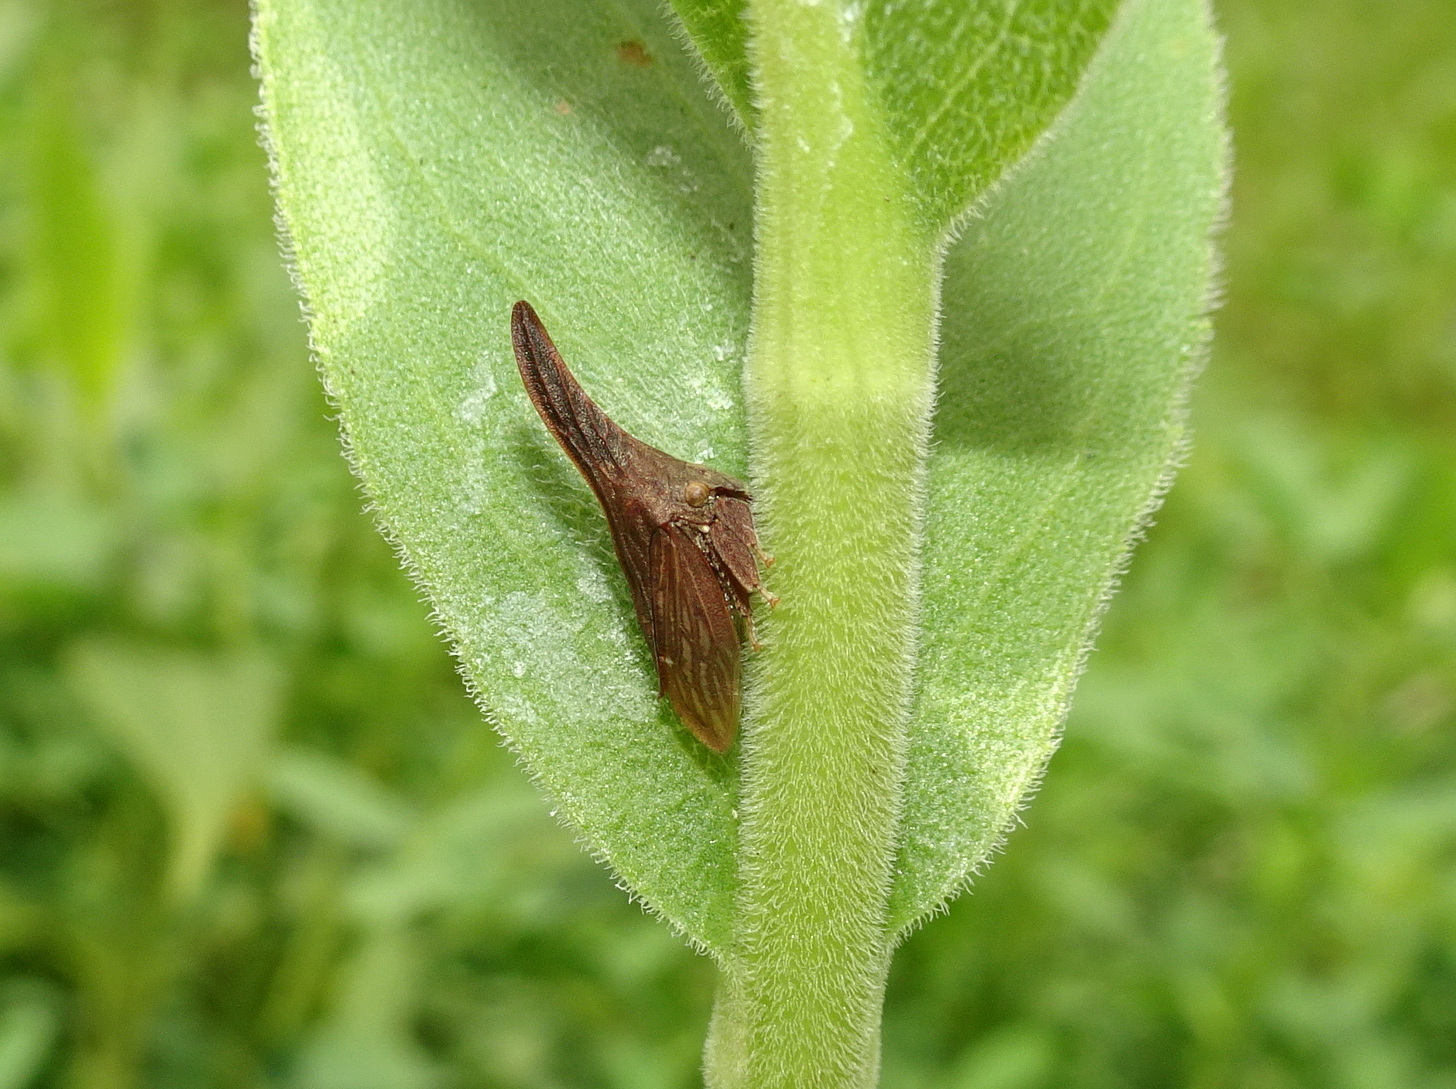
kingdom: Animalia
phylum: Arthropoda
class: Insecta
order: Hemiptera
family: Membracidae
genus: Enchenopa
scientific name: Enchenopa latipes
